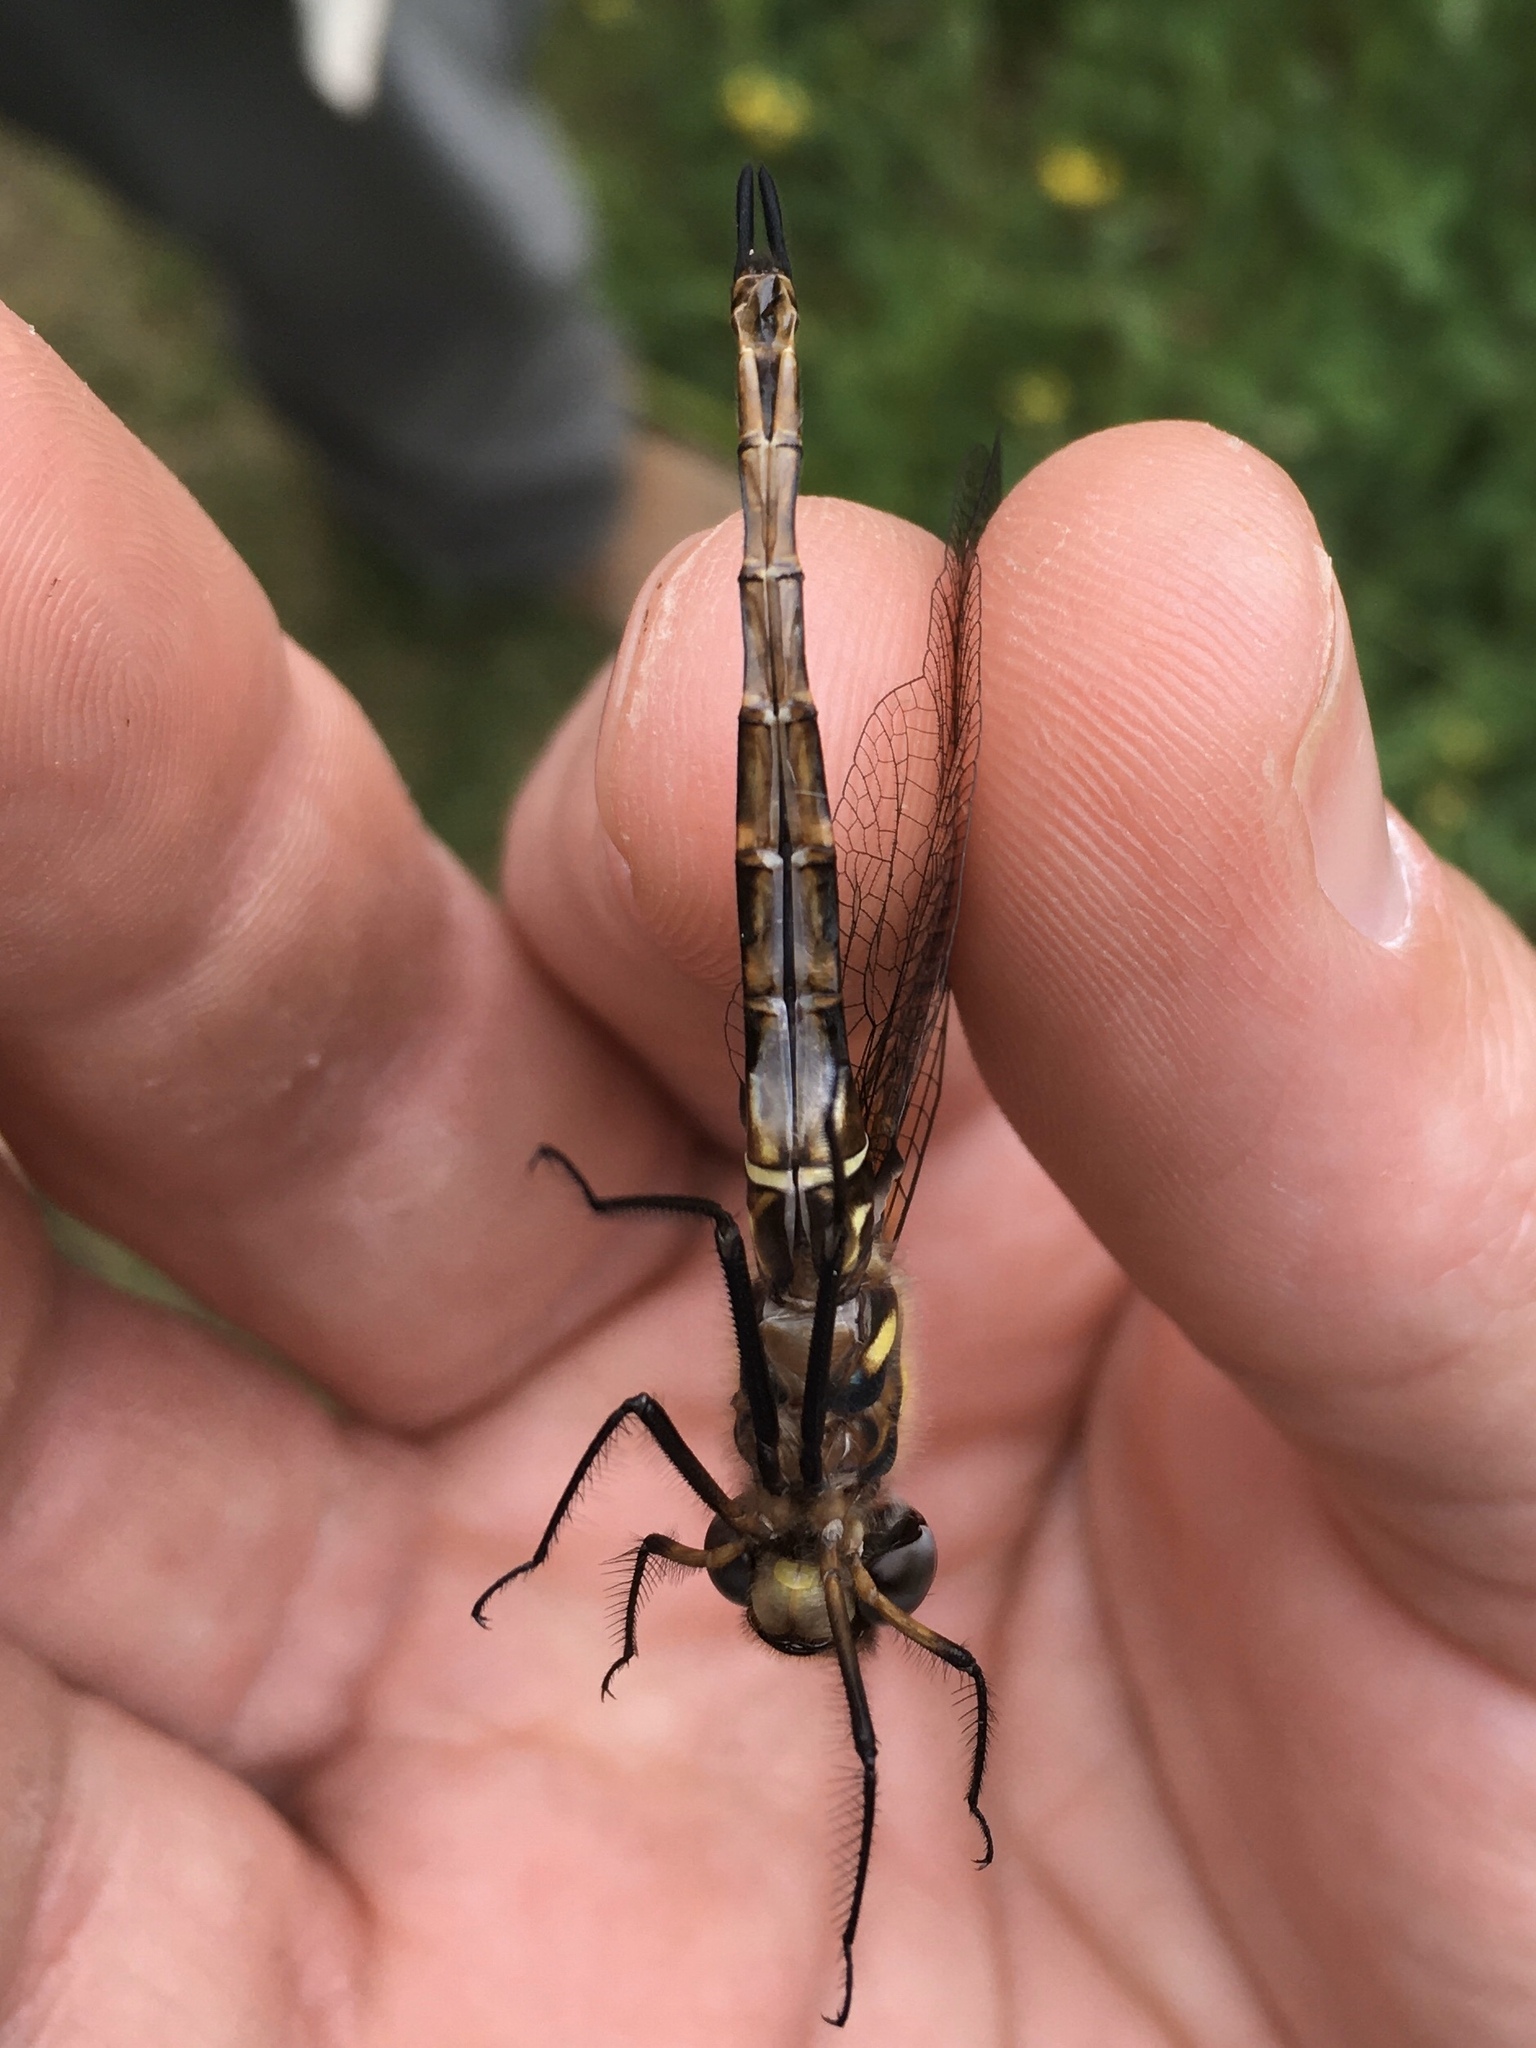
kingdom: Animalia
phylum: Arthropoda
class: Insecta
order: Odonata
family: Corduliidae
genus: Somatochlora
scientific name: Somatochlora walshii
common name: Brush-tipped emerald
